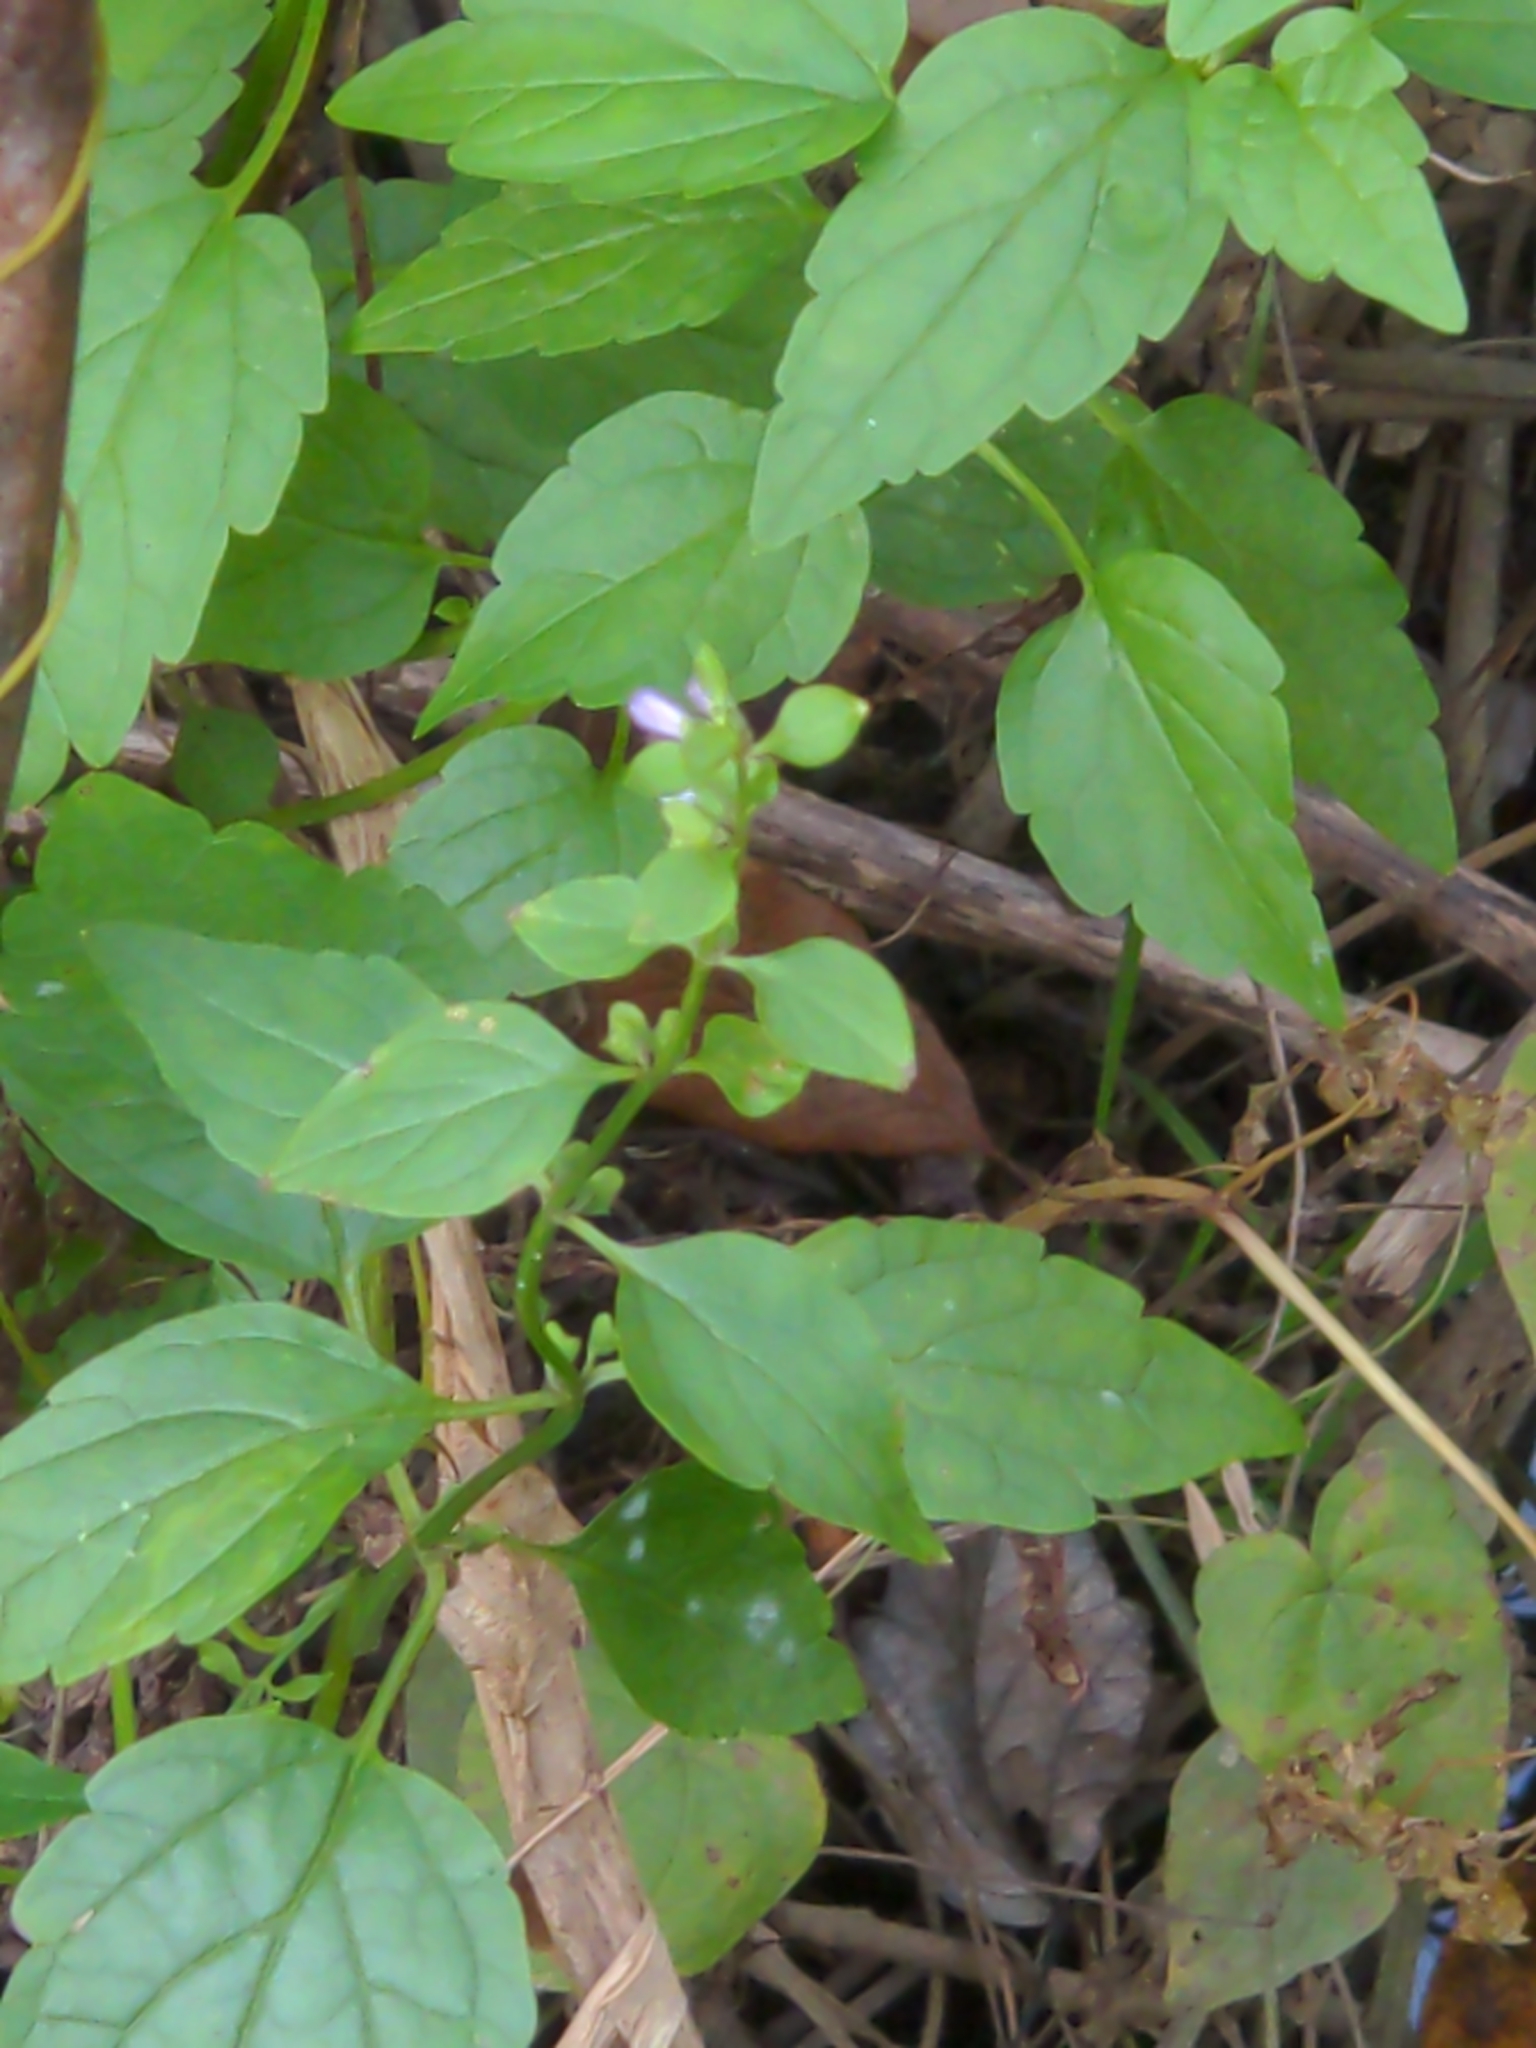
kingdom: Plantae
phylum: Tracheophyta
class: Magnoliopsida
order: Lamiales
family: Lamiaceae
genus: Scutellaria
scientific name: Scutellaria lateriflora
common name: Blue skullcap
